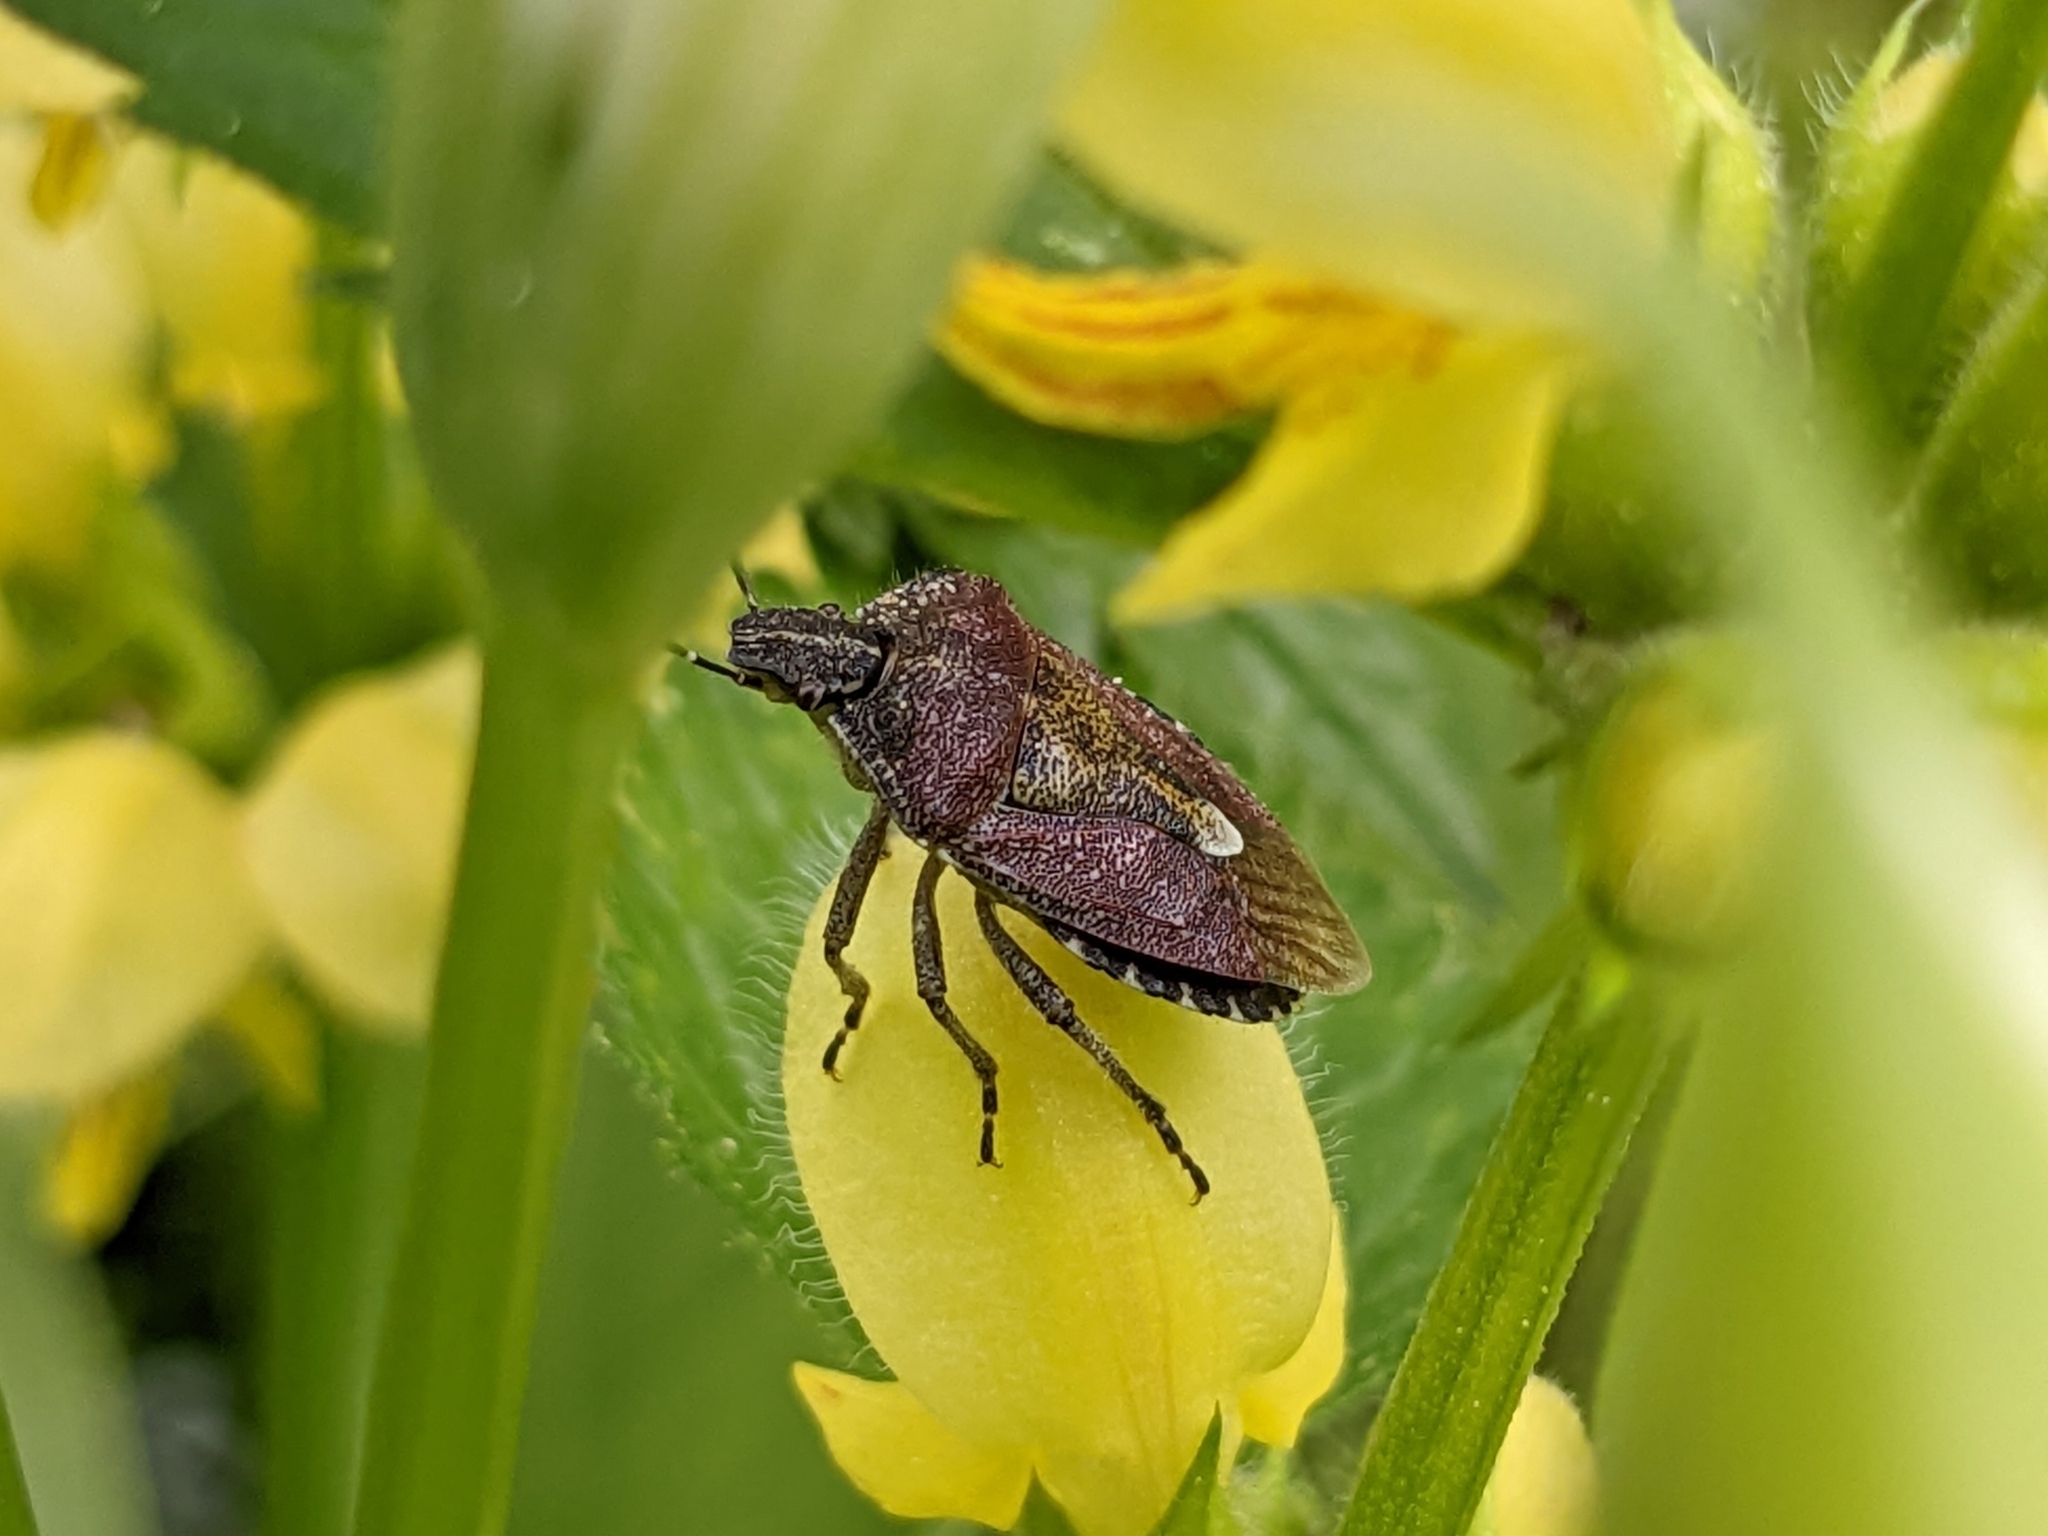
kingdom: Animalia
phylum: Arthropoda
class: Insecta
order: Hemiptera
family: Pentatomidae
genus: Dolycoris
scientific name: Dolycoris baccarum
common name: Sloe bug
